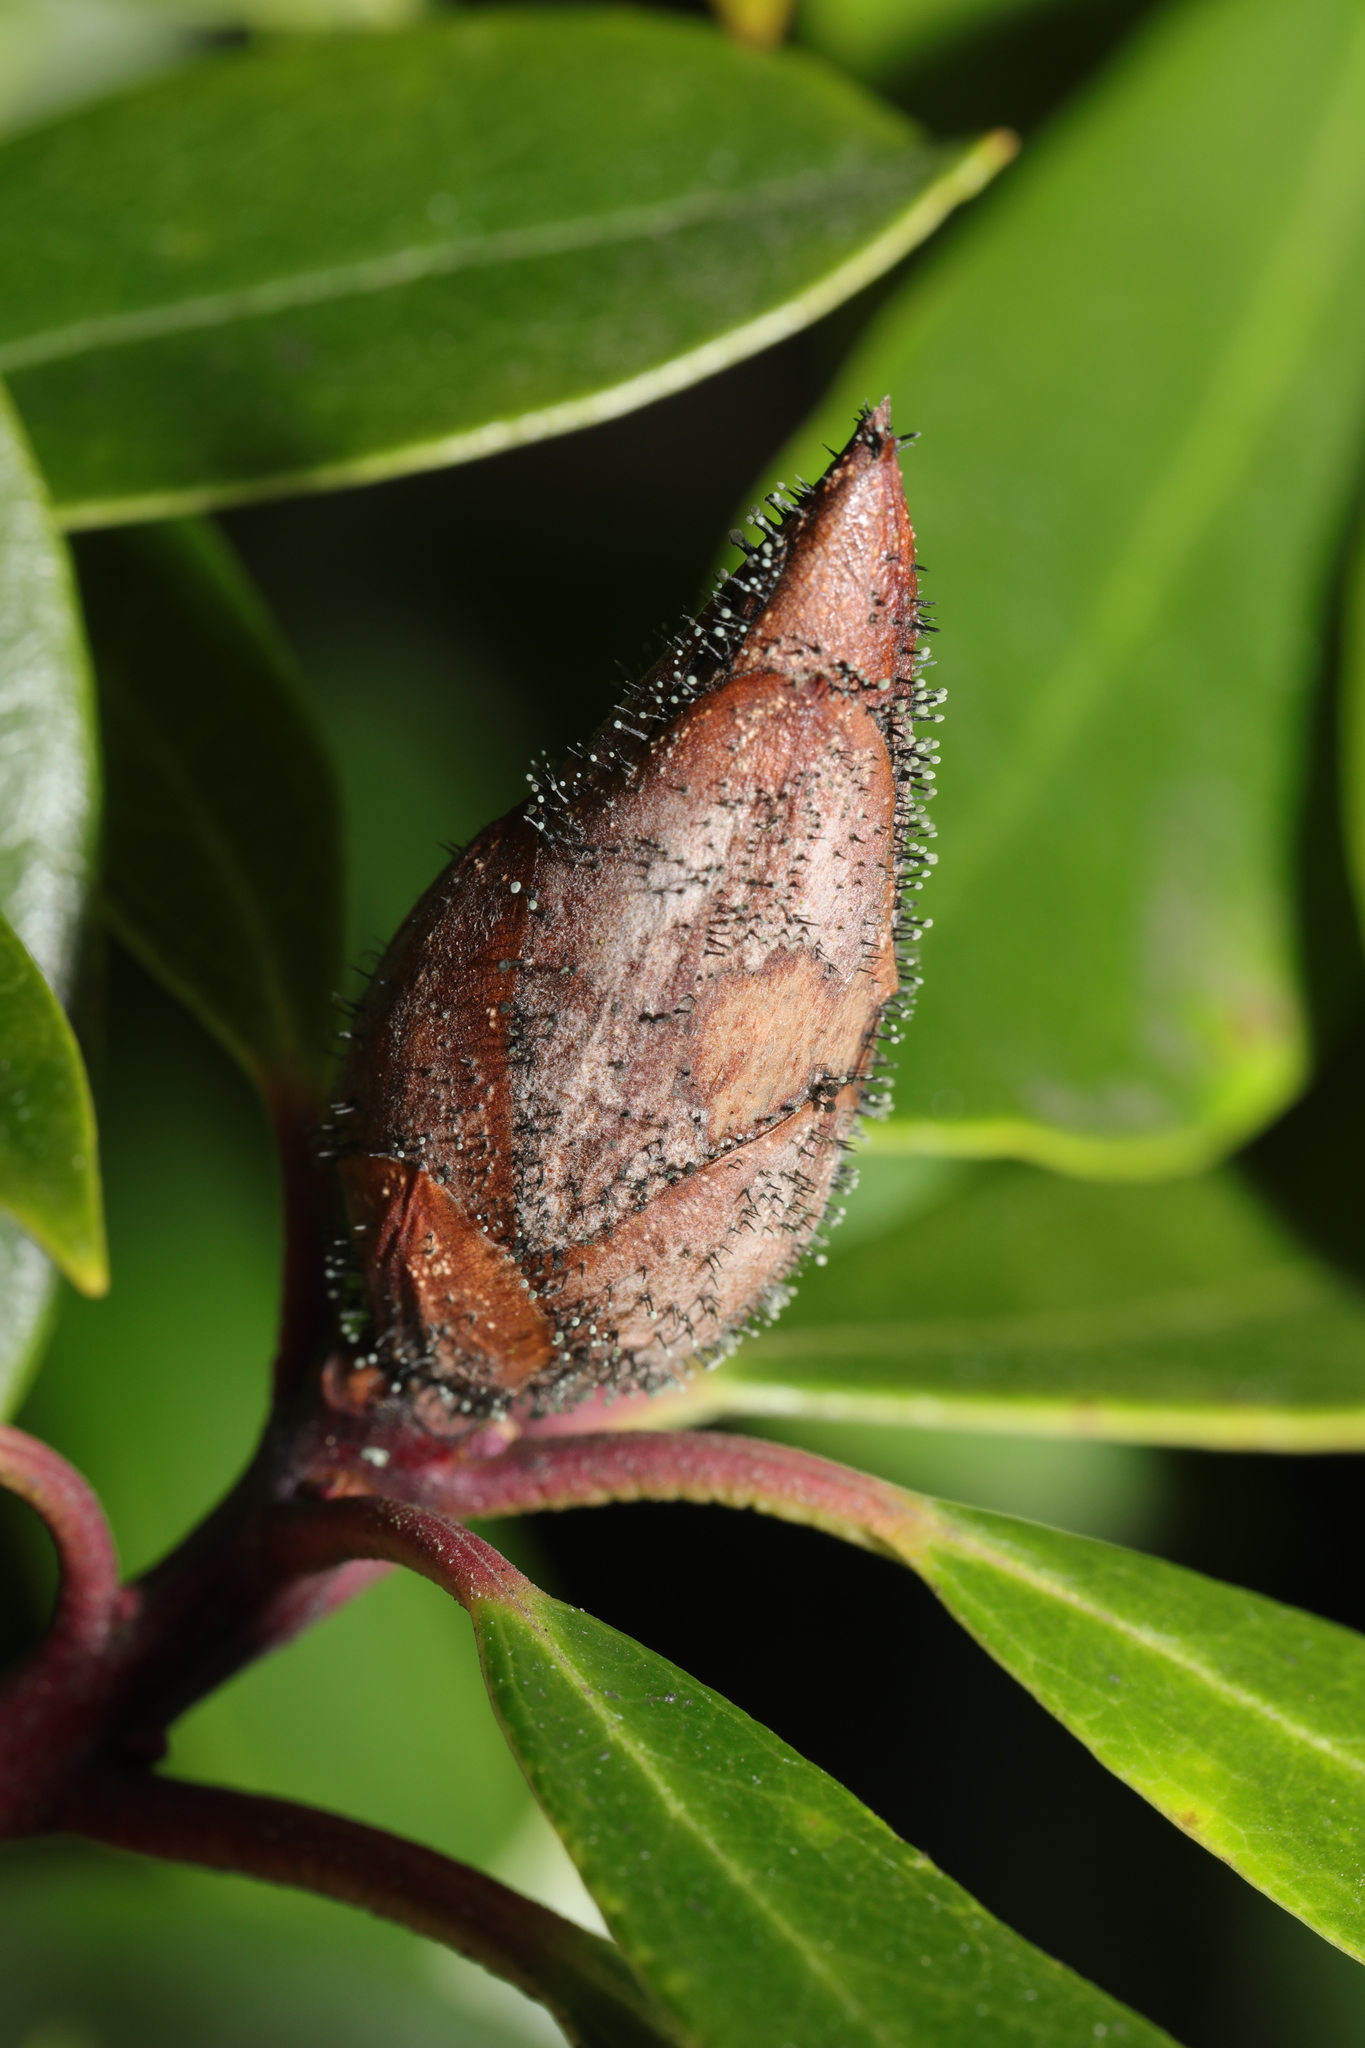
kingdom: Fungi
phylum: Ascomycota
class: Dothideomycetes
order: Pleosporales
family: Melanommataceae
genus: Seifertia
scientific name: Seifertia azaleae
